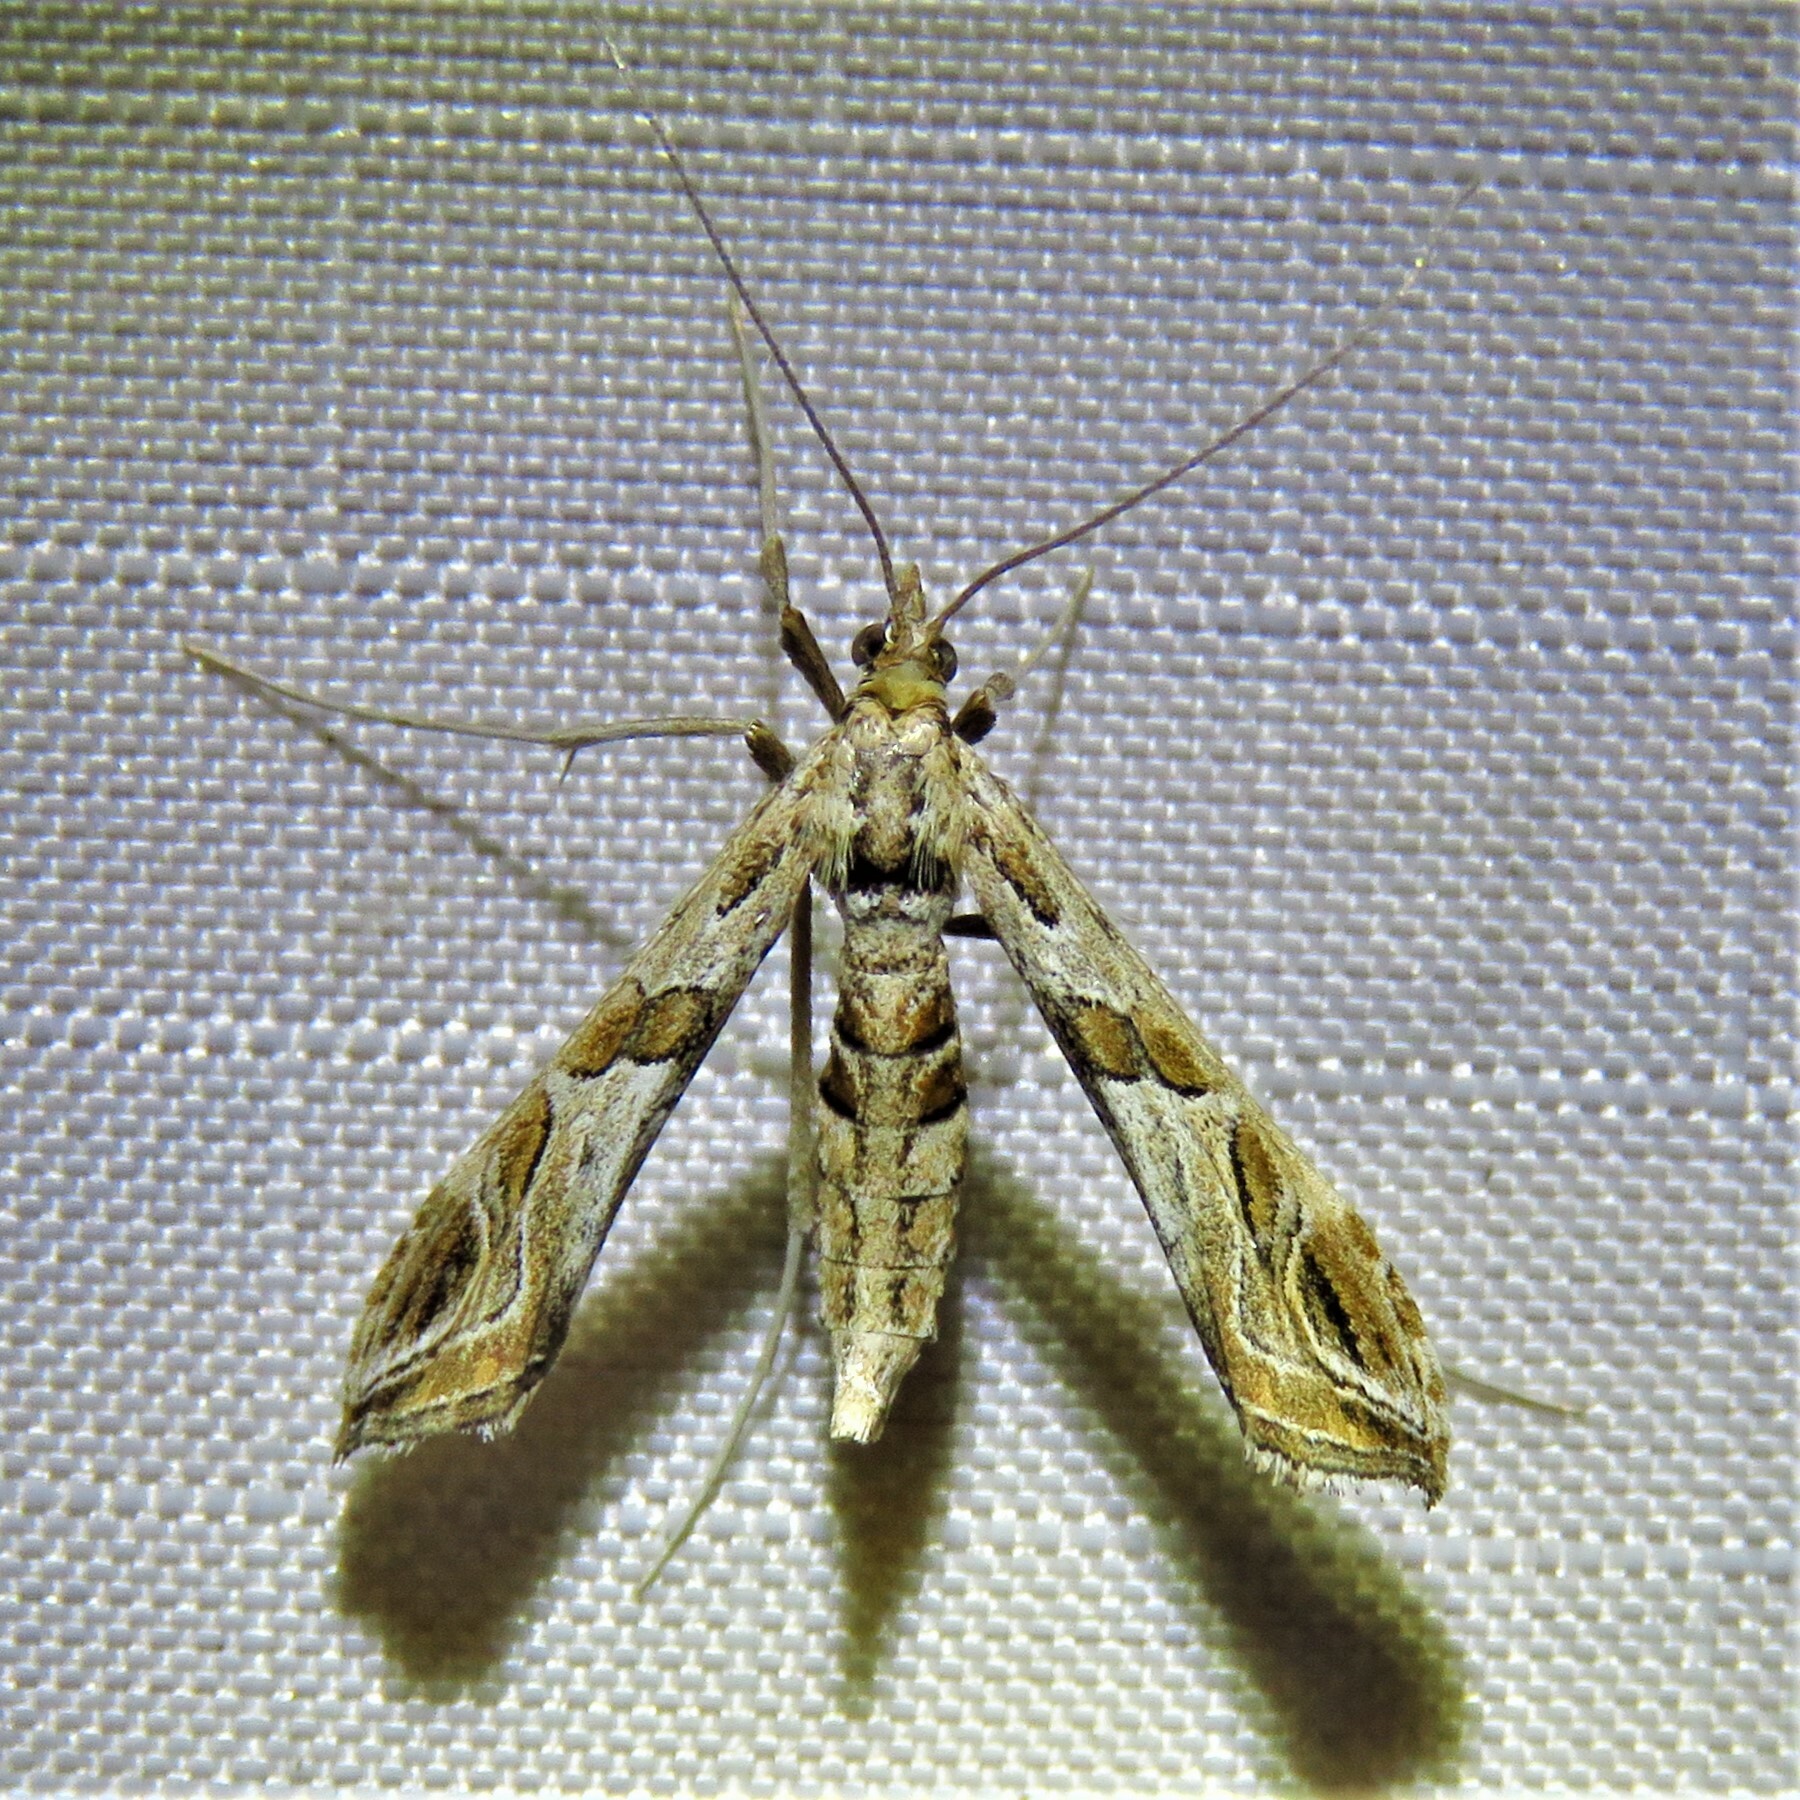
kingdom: Animalia
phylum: Arthropoda
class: Insecta
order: Lepidoptera
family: Crambidae
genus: Lineodes
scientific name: Lineodes interrupta
